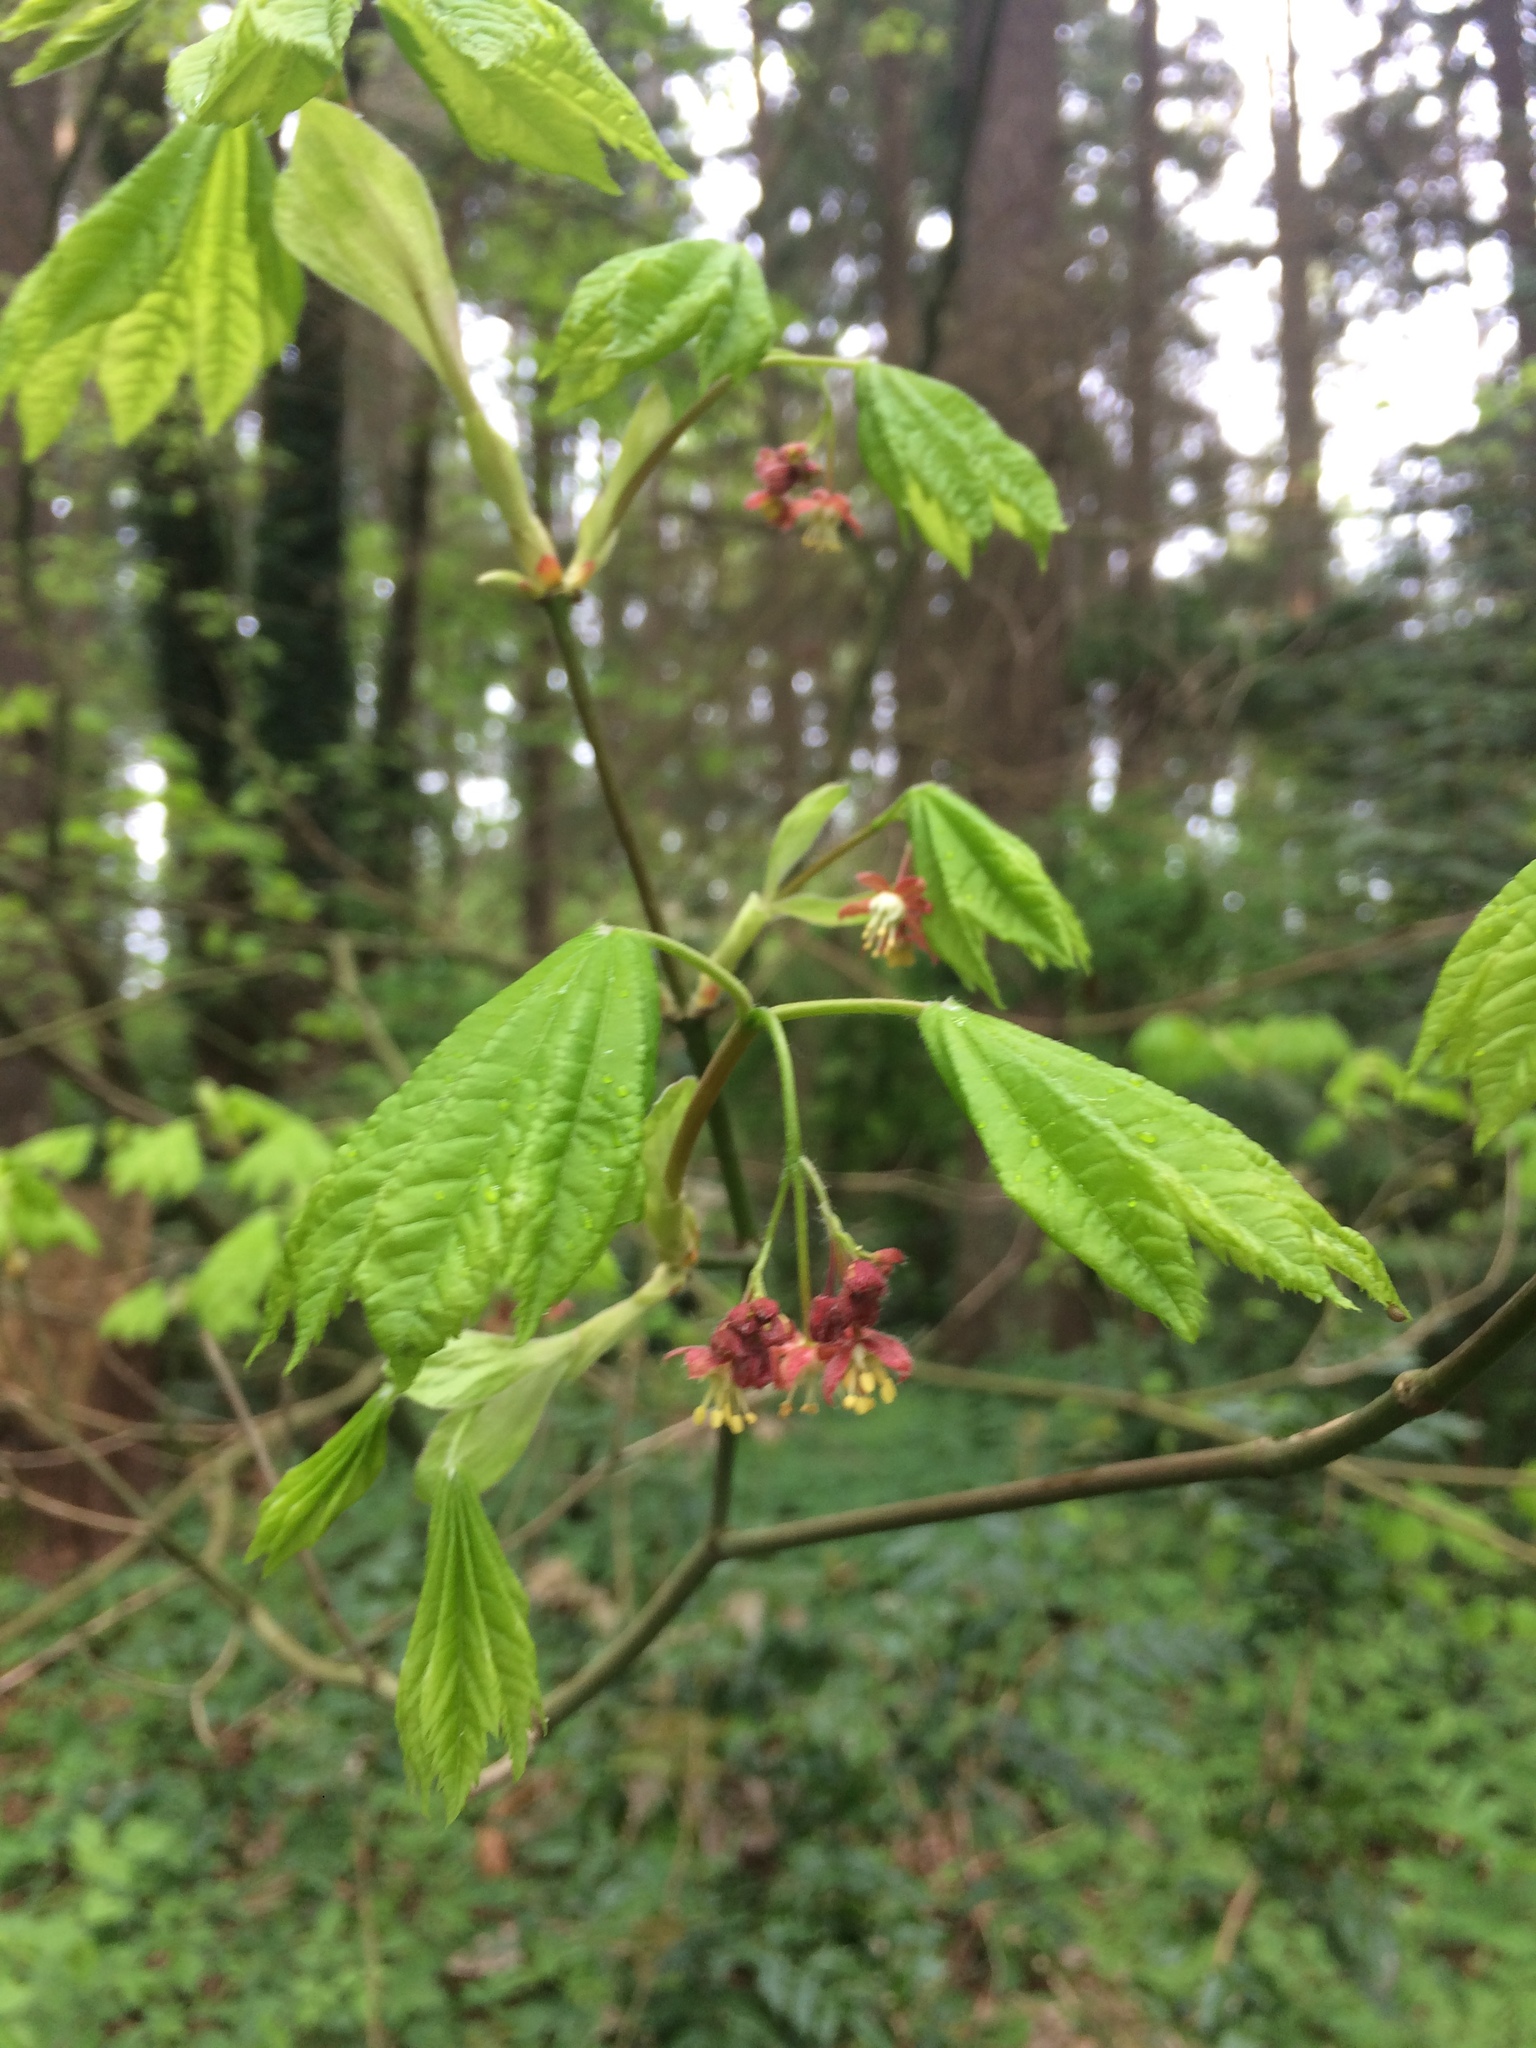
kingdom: Plantae
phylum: Tracheophyta
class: Magnoliopsida
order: Sapindales
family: Sapindaceae
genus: Acer
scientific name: Acer circinatum
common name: Vine maple
